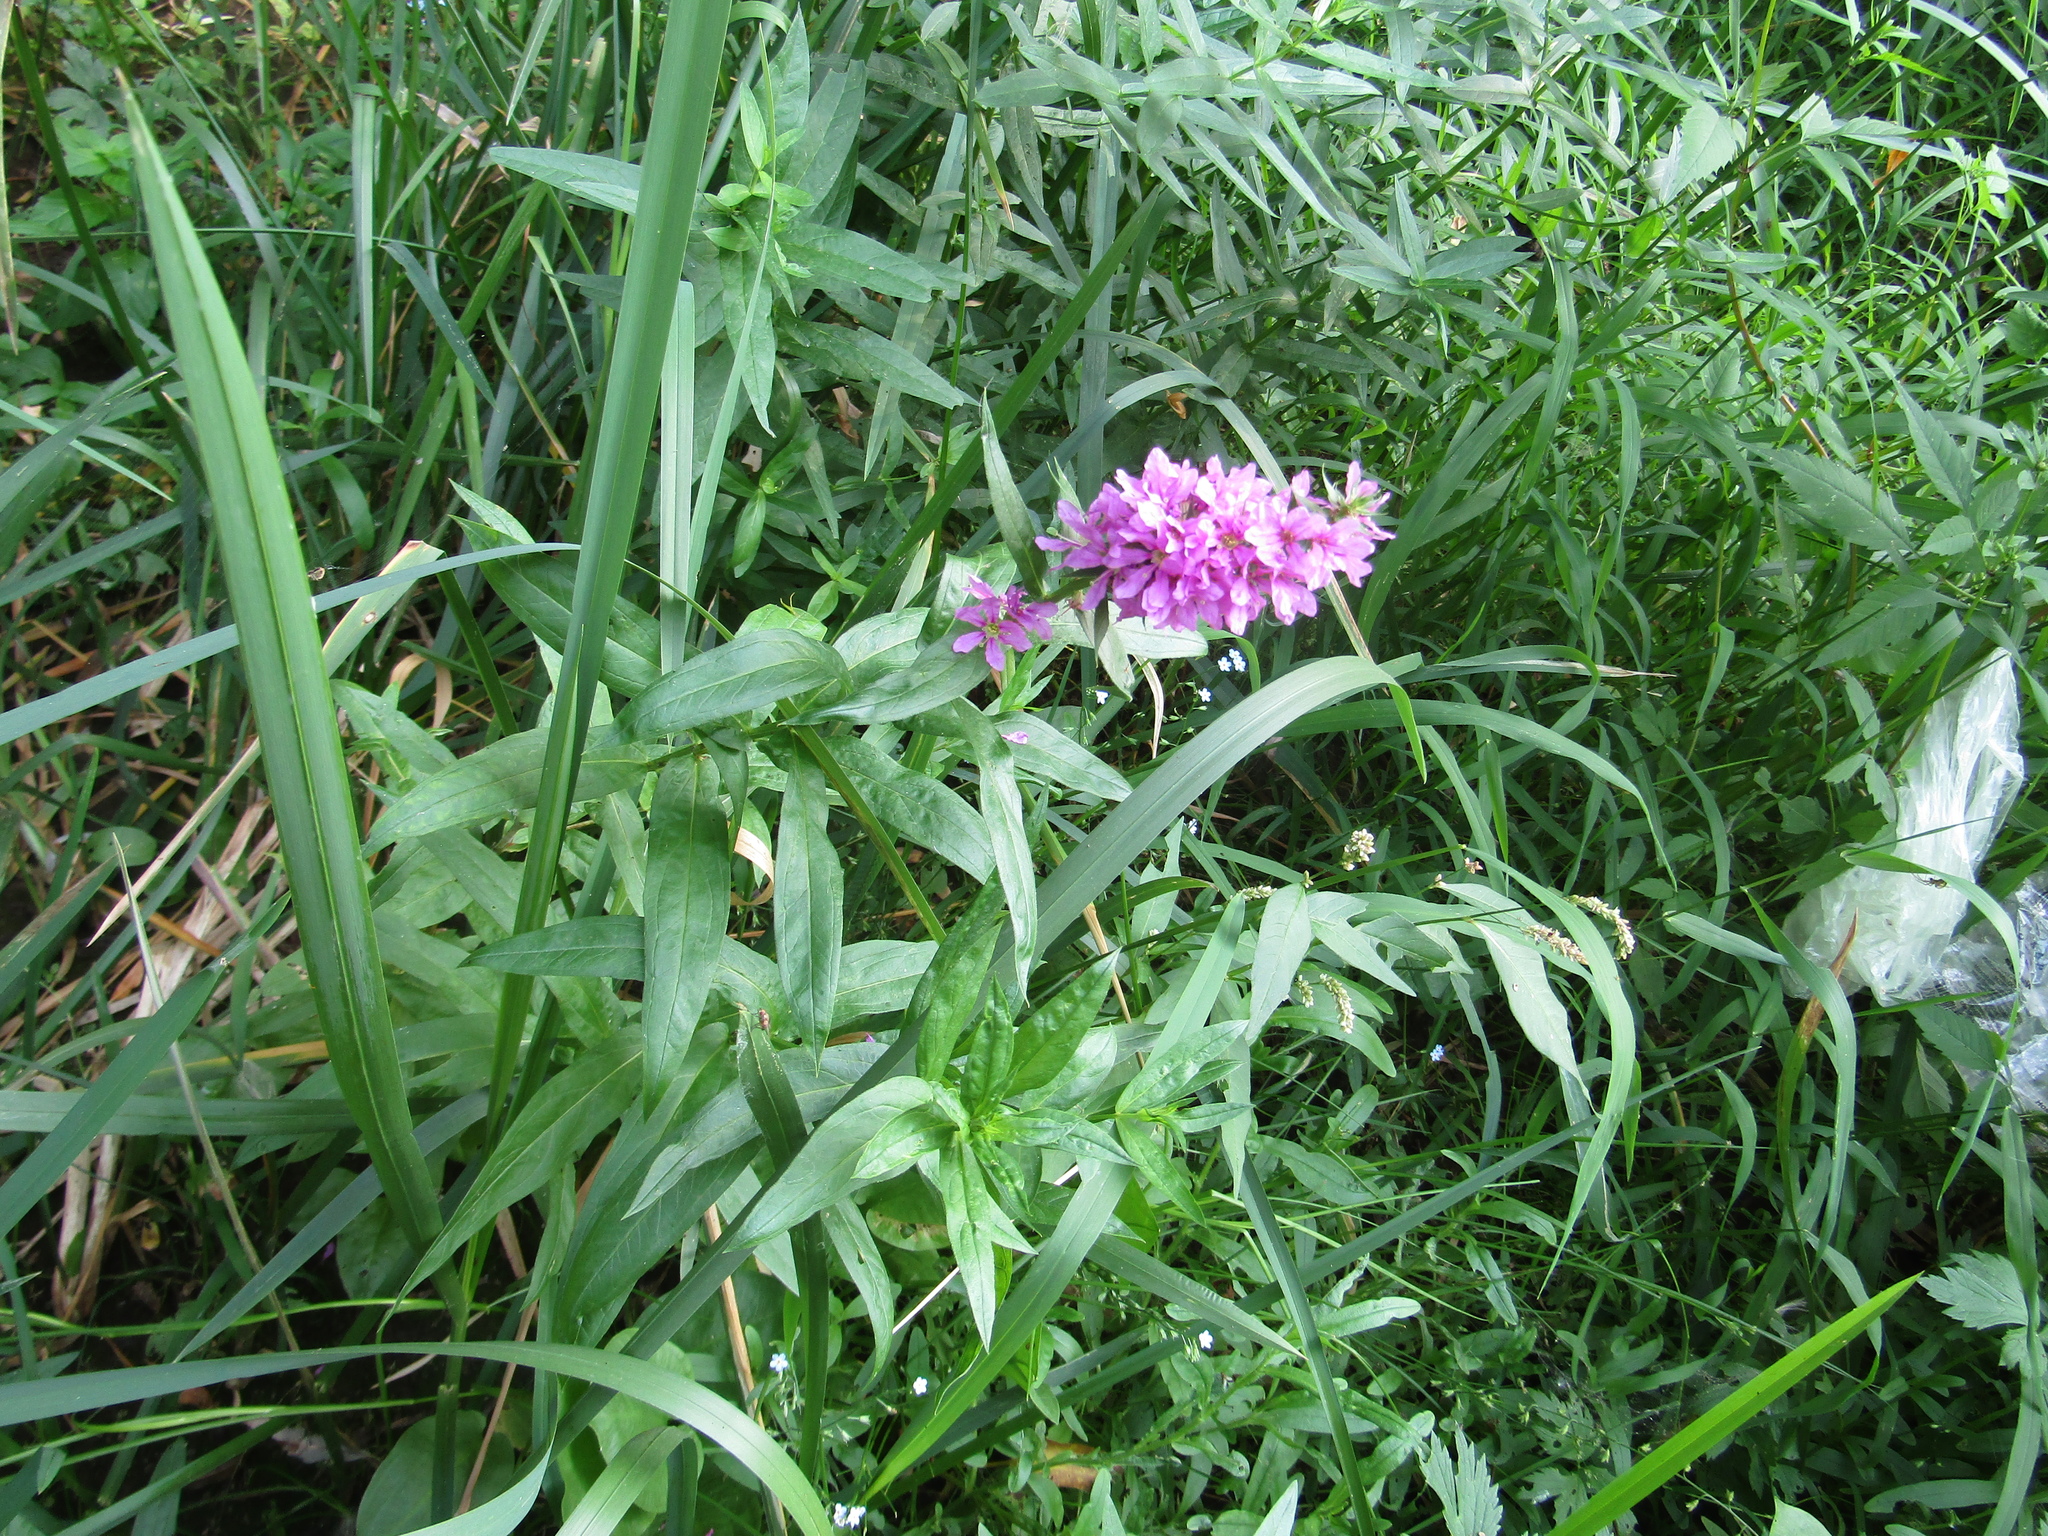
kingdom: Plantae
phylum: Tracheophyta
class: Magnoliopsida
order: Myrtales
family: Lythraceae
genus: Lythrum
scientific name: Lythrum salicaria
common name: Purple loosestrife
